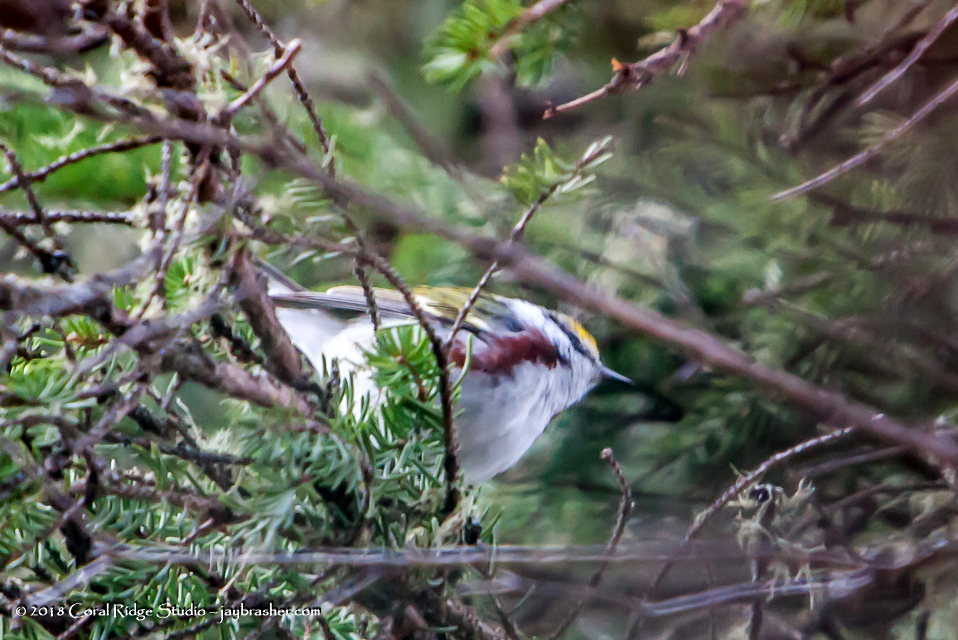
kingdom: Animalia
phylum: Chordata
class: Aves
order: Passeriformes
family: Parulidae
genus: Setophaga
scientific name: Setophaga pensylvanica
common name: Chestnut-sided warbler
